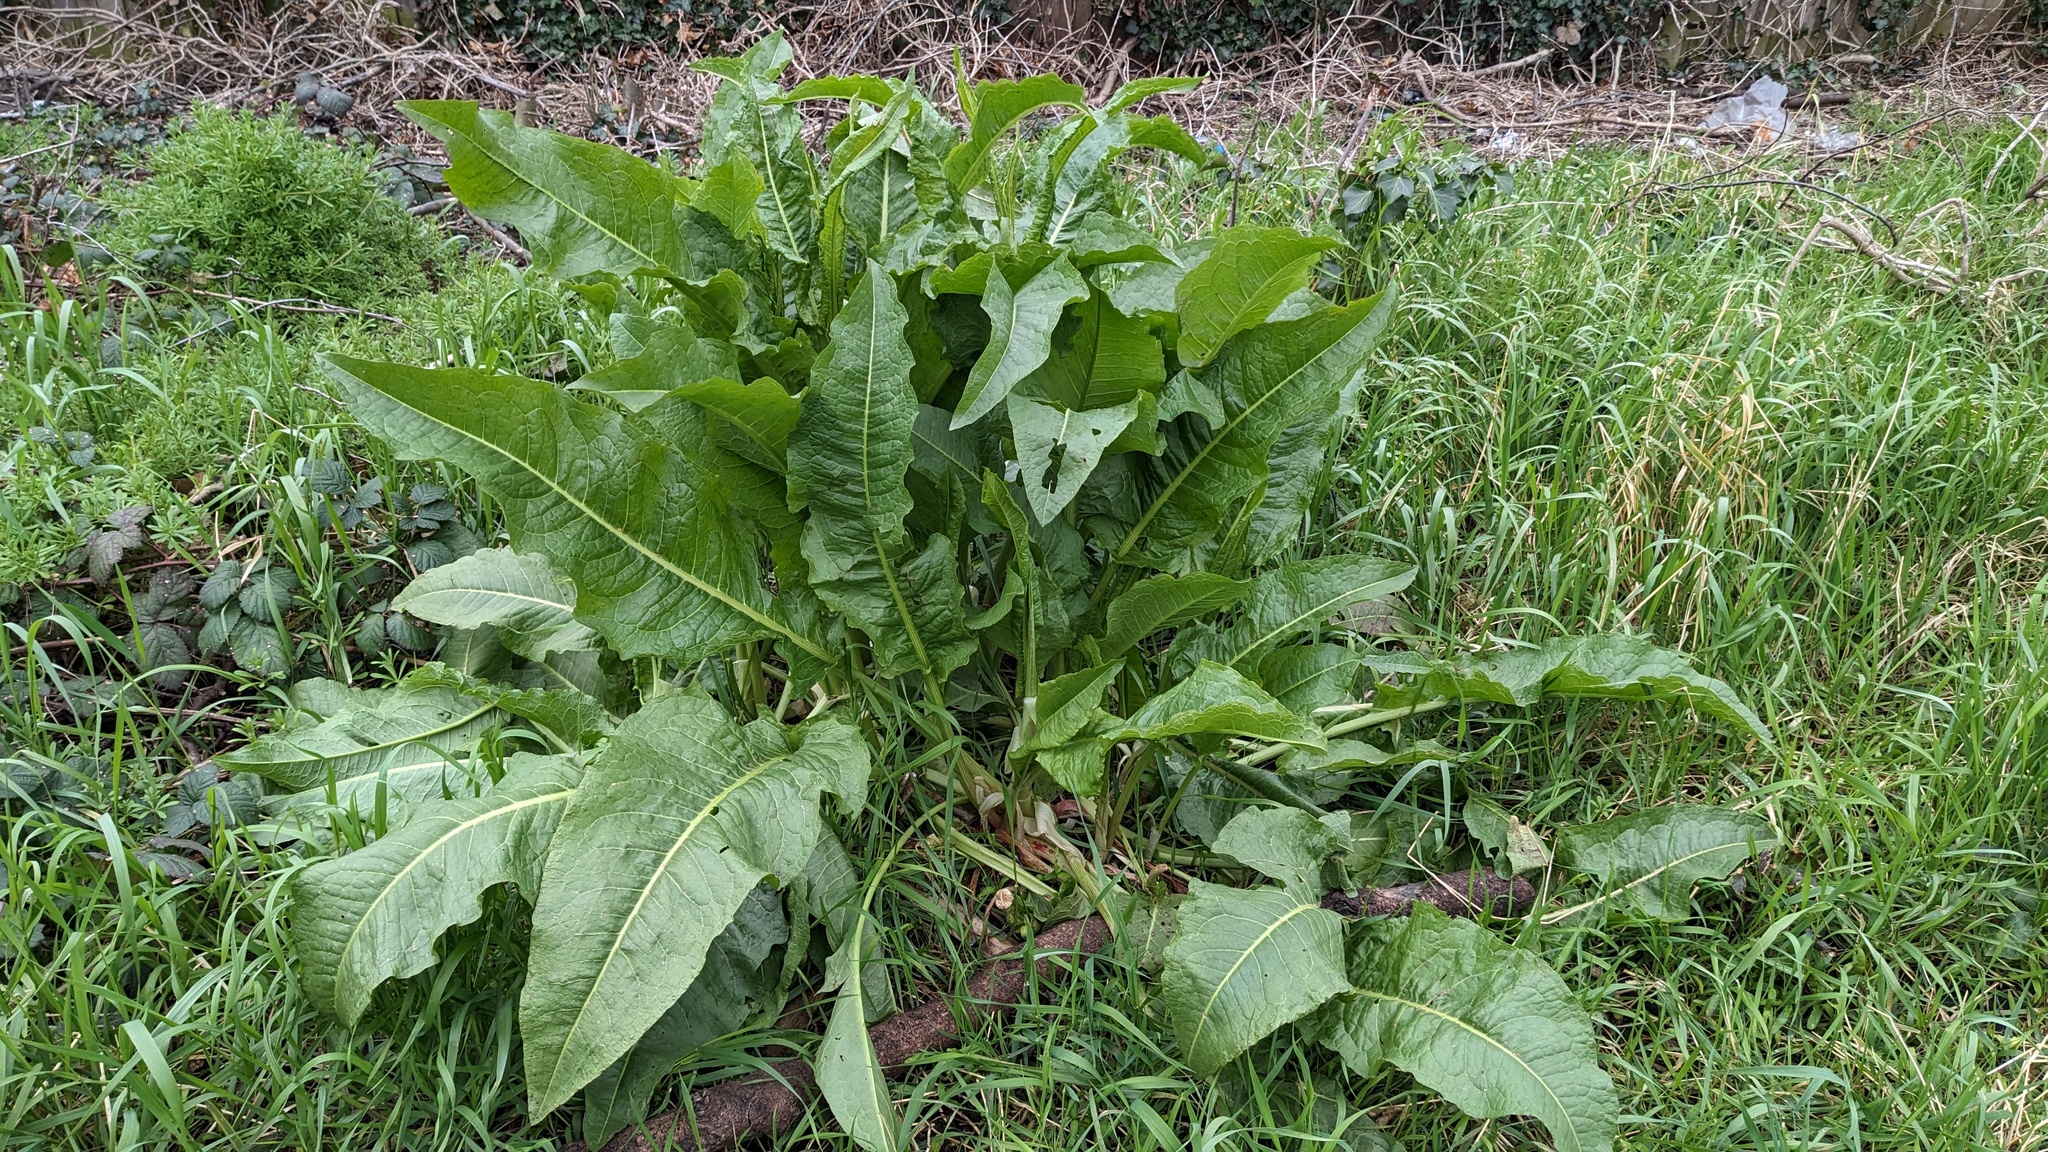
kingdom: Plantae
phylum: Tracheophyta
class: Magnoliopsida
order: Caryophyllales
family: Polygonaceae
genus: Rumex
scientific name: Rumex cristatus
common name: Greek dock
